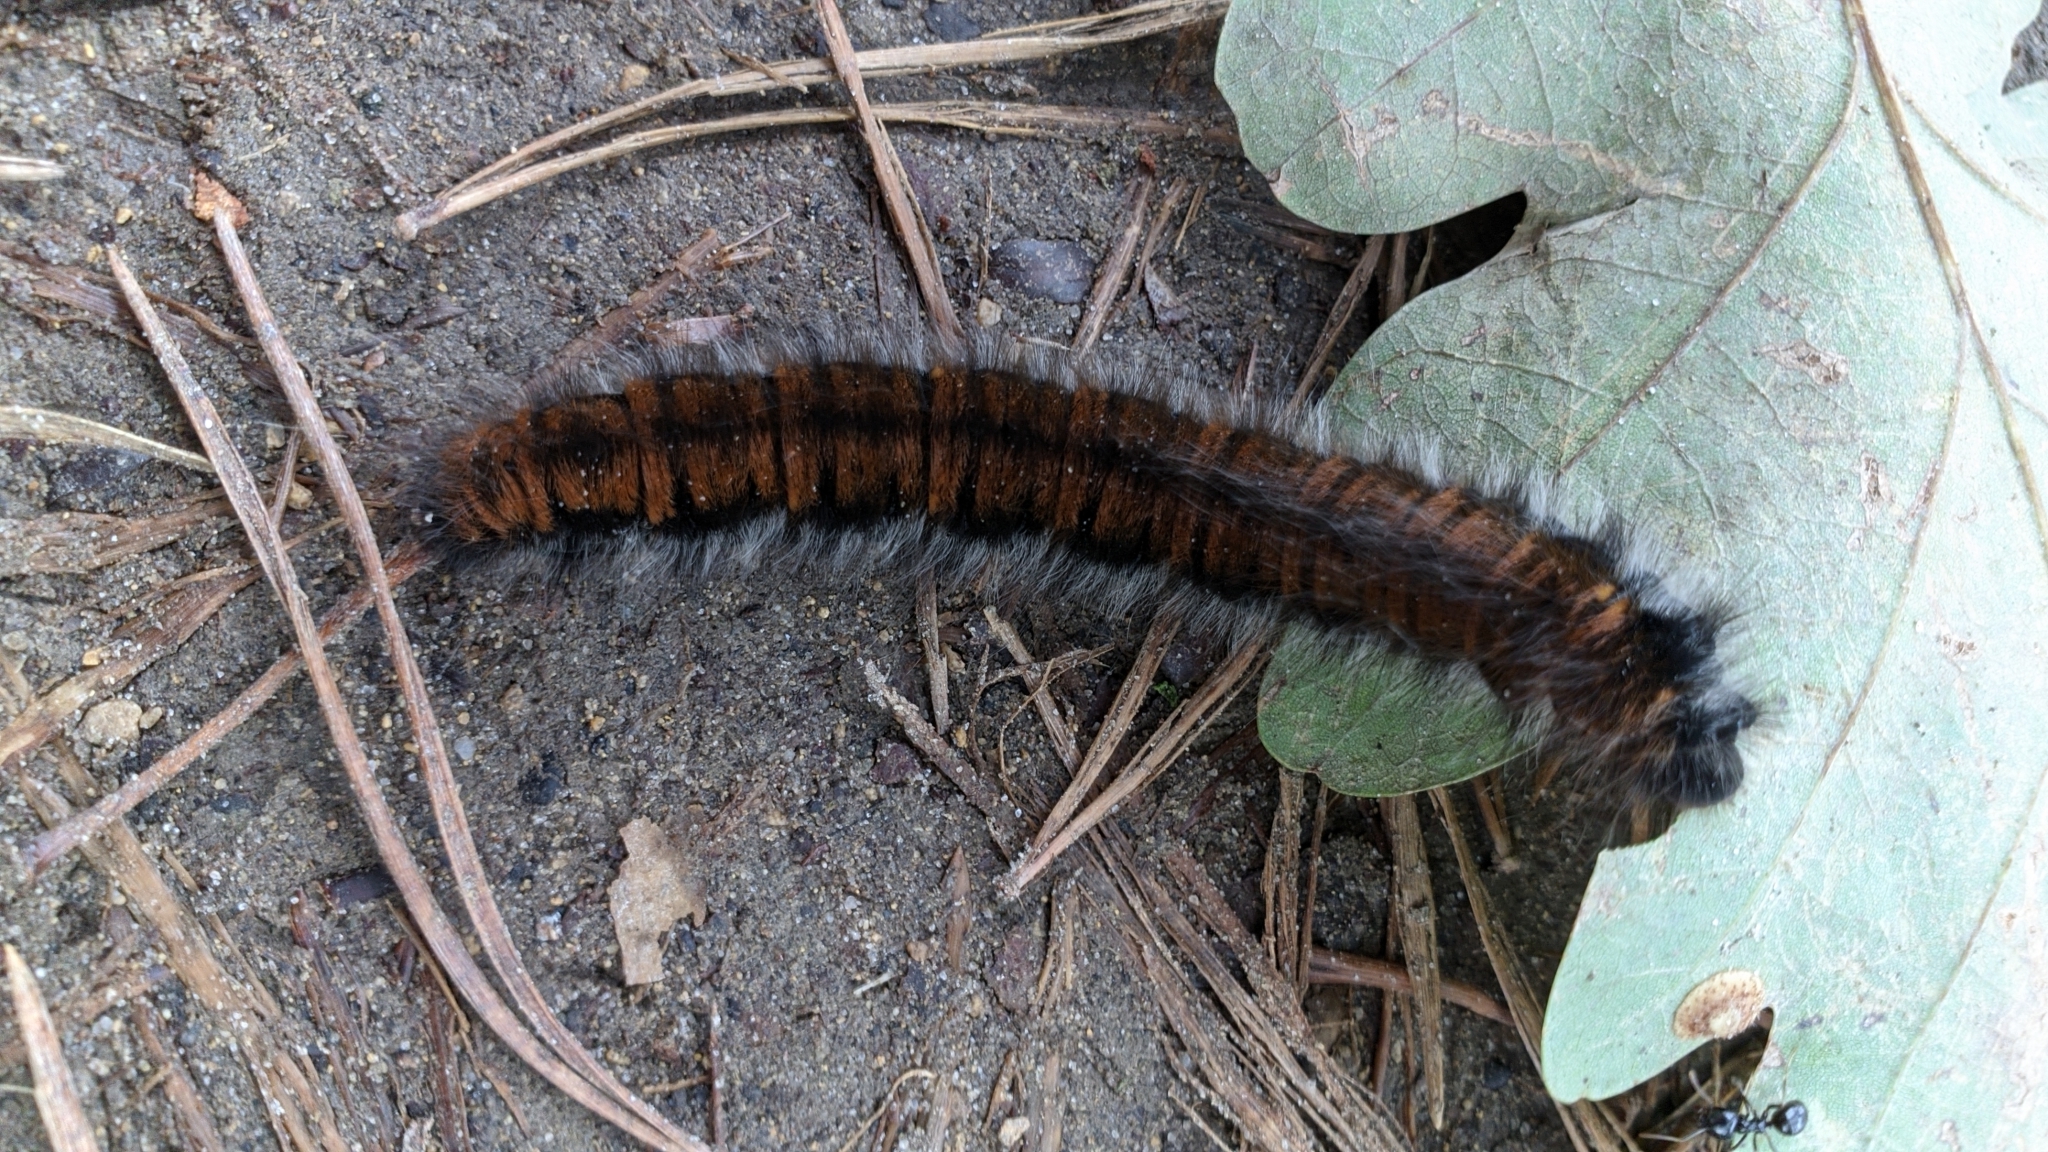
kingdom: Animalia
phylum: Arthropoda
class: Insecta
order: Lepidoptera
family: Lasiocampidae
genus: Macrothylacia
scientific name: Macrothylacia rubi
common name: Fox moth
